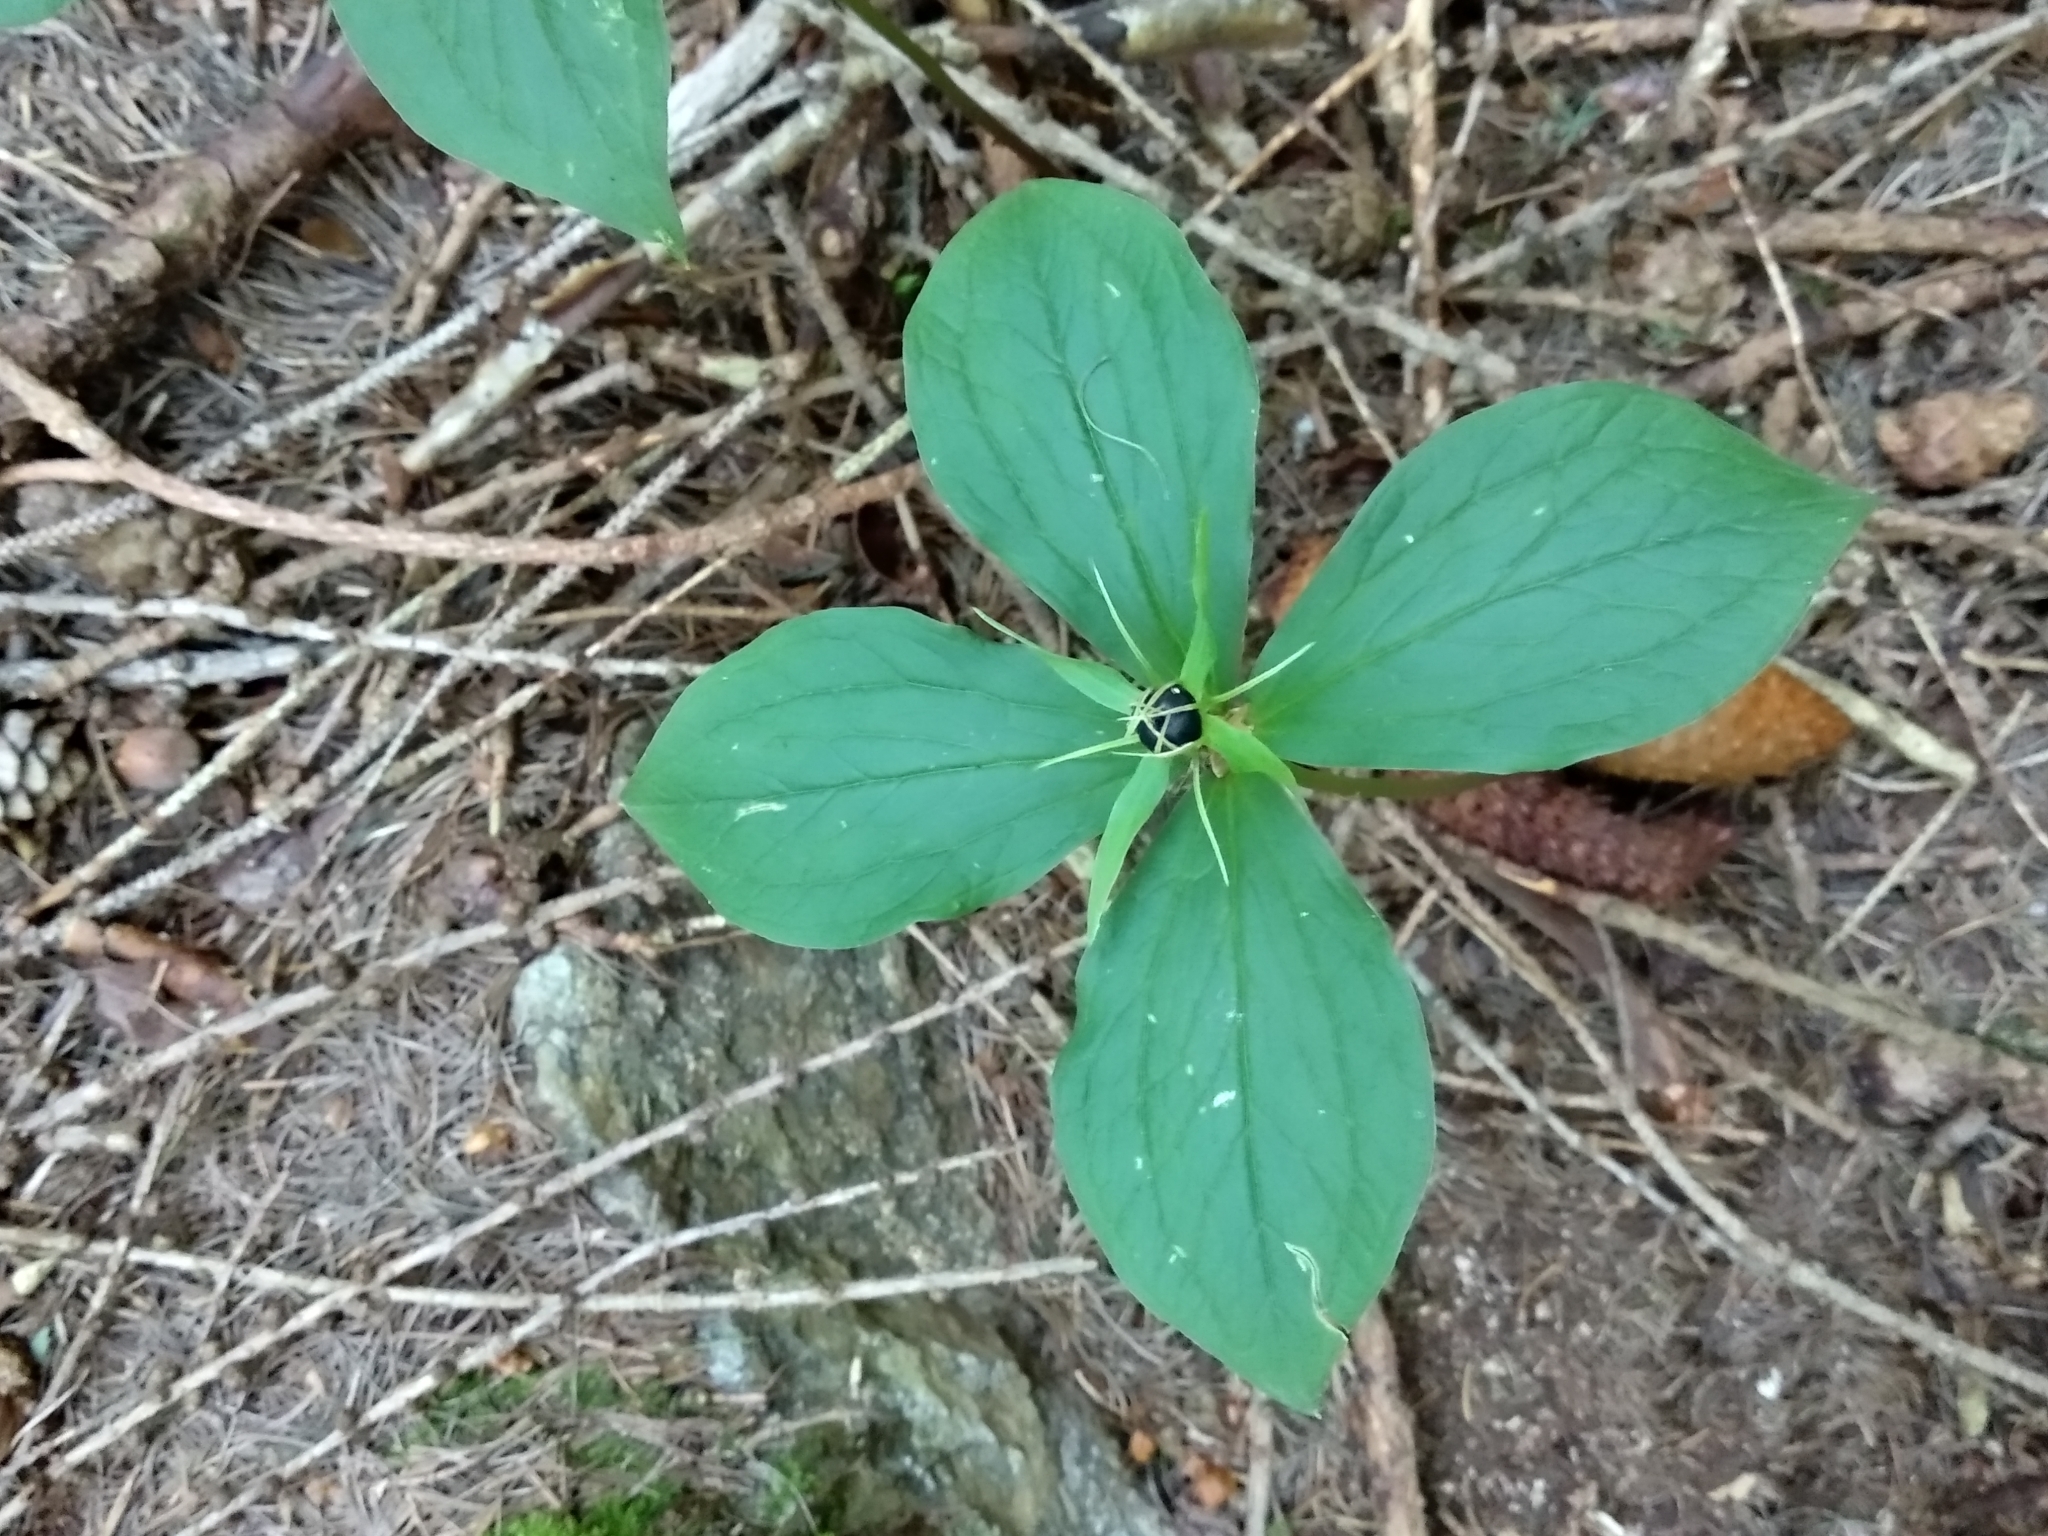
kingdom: Plantae
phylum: Tracheophyta
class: Liliopsida
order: Liliales
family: Melanthiaceae
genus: Paris
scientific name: Paris quadrifolia
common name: Herb-paris
